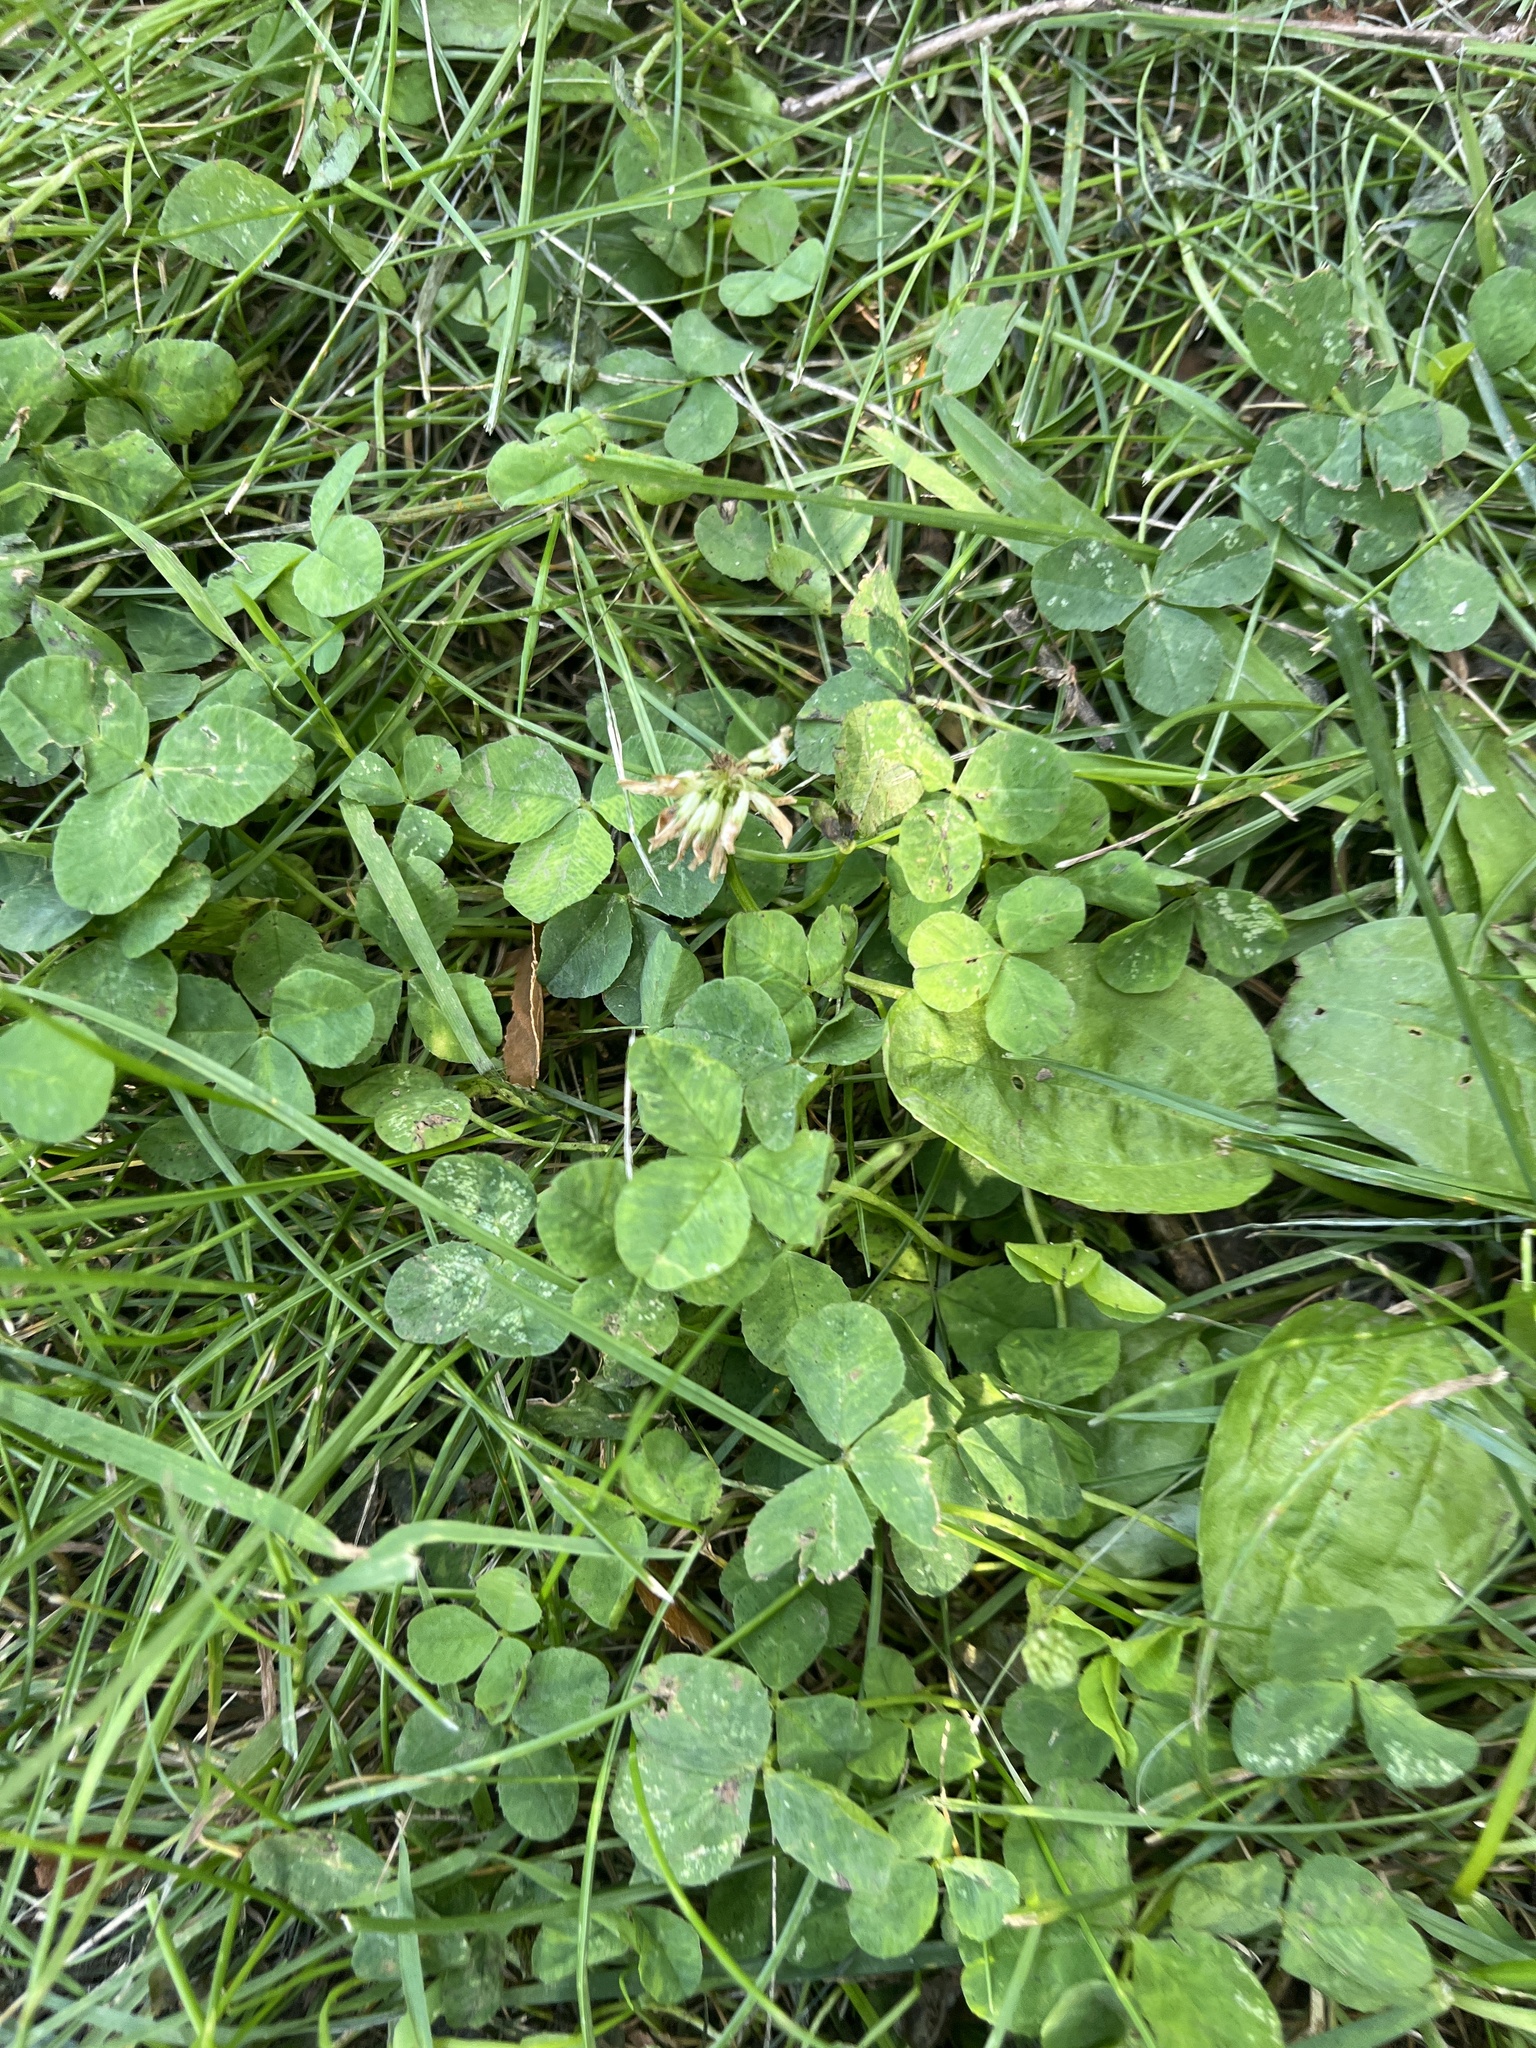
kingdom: Plantae
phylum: Tracheophyta
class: Magnoliopsida
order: Fabales
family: Fabaceae
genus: Trifolium
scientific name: Trifolium repens
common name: White clover
